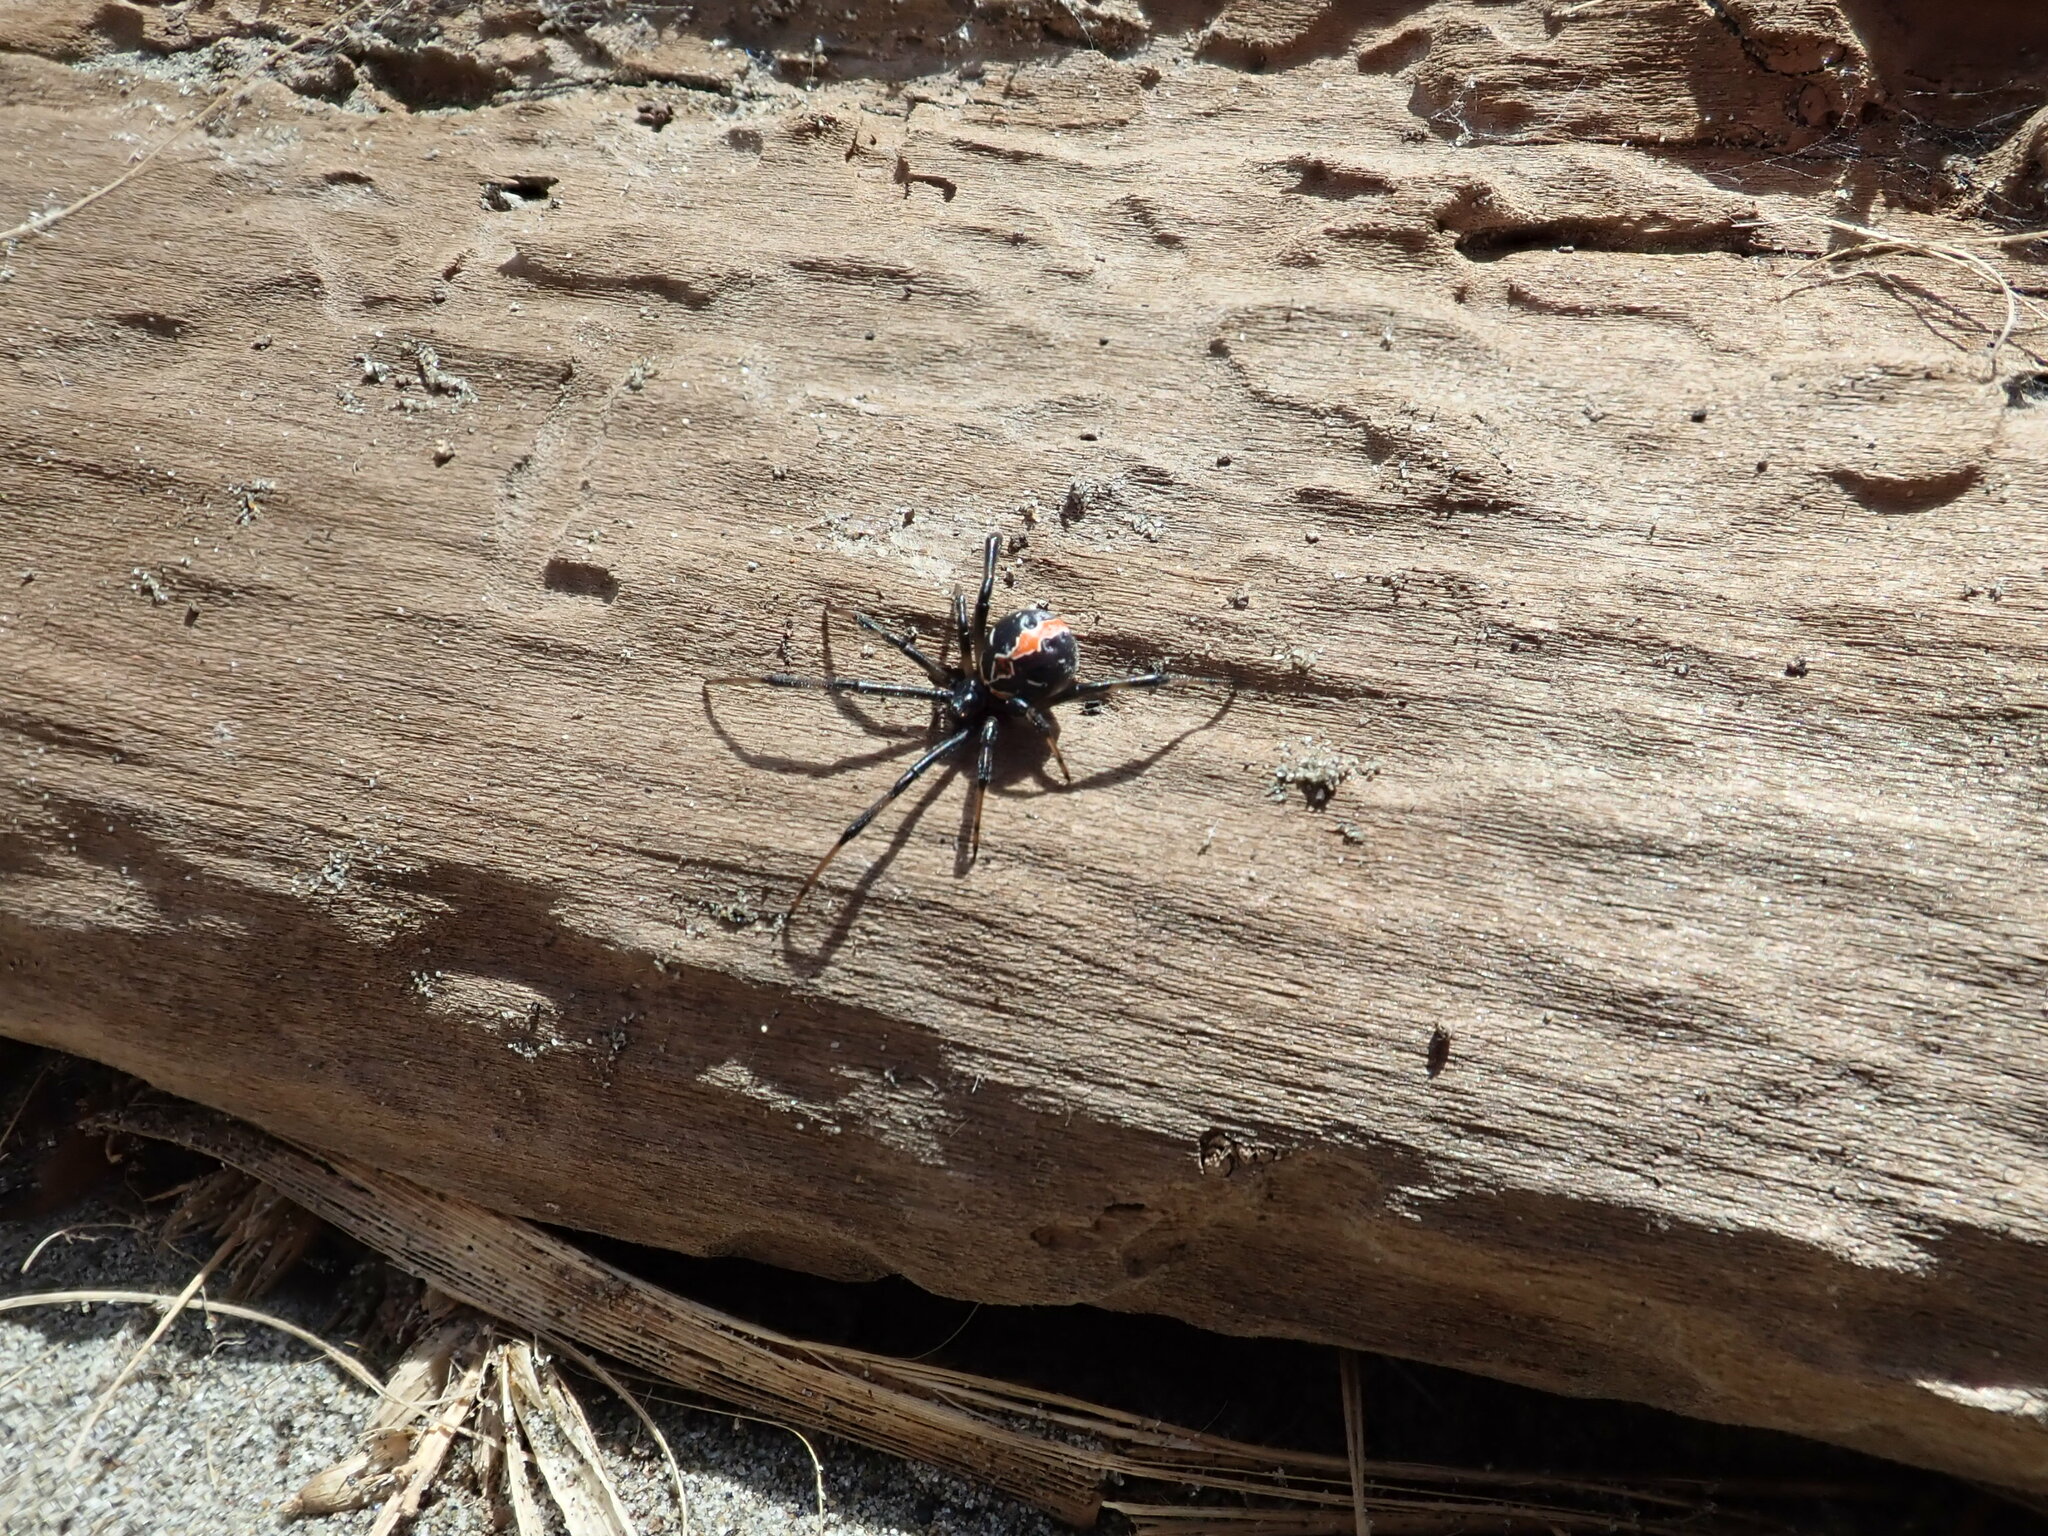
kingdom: Animalia
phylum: Arthropoda
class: Arachnida
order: Araneae
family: Theridiidae
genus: Latrodectus
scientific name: Latrodectus katipo
